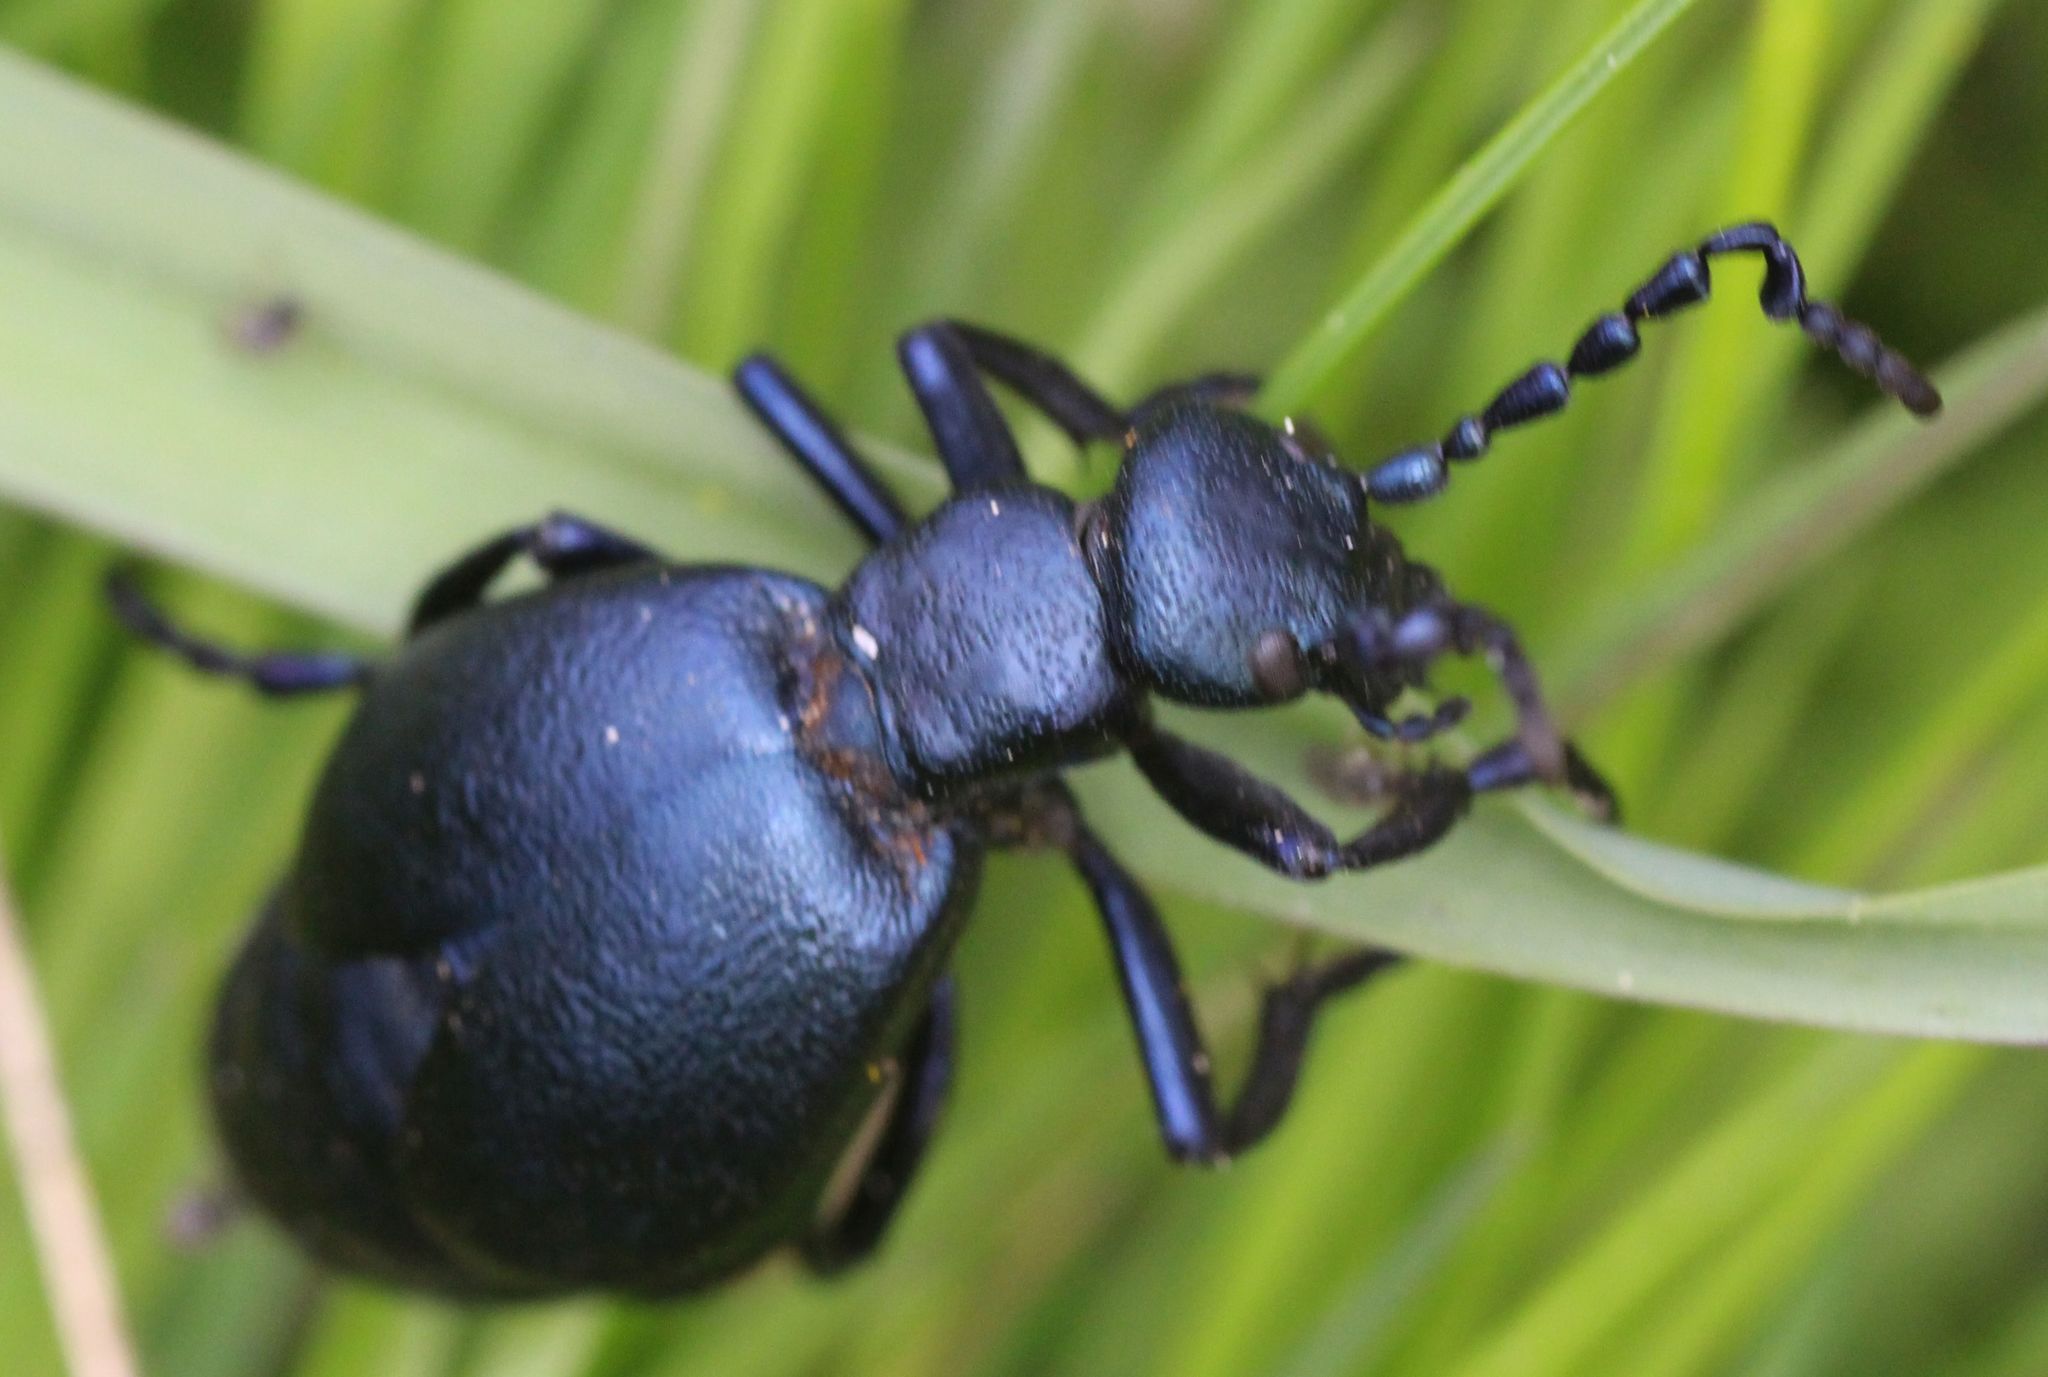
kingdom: Animalia
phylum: Arthropoda
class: Insecta
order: Coleoptera
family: Meloidae
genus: Meloe
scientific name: Meloe violaceus
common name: Violet oil-beetle
